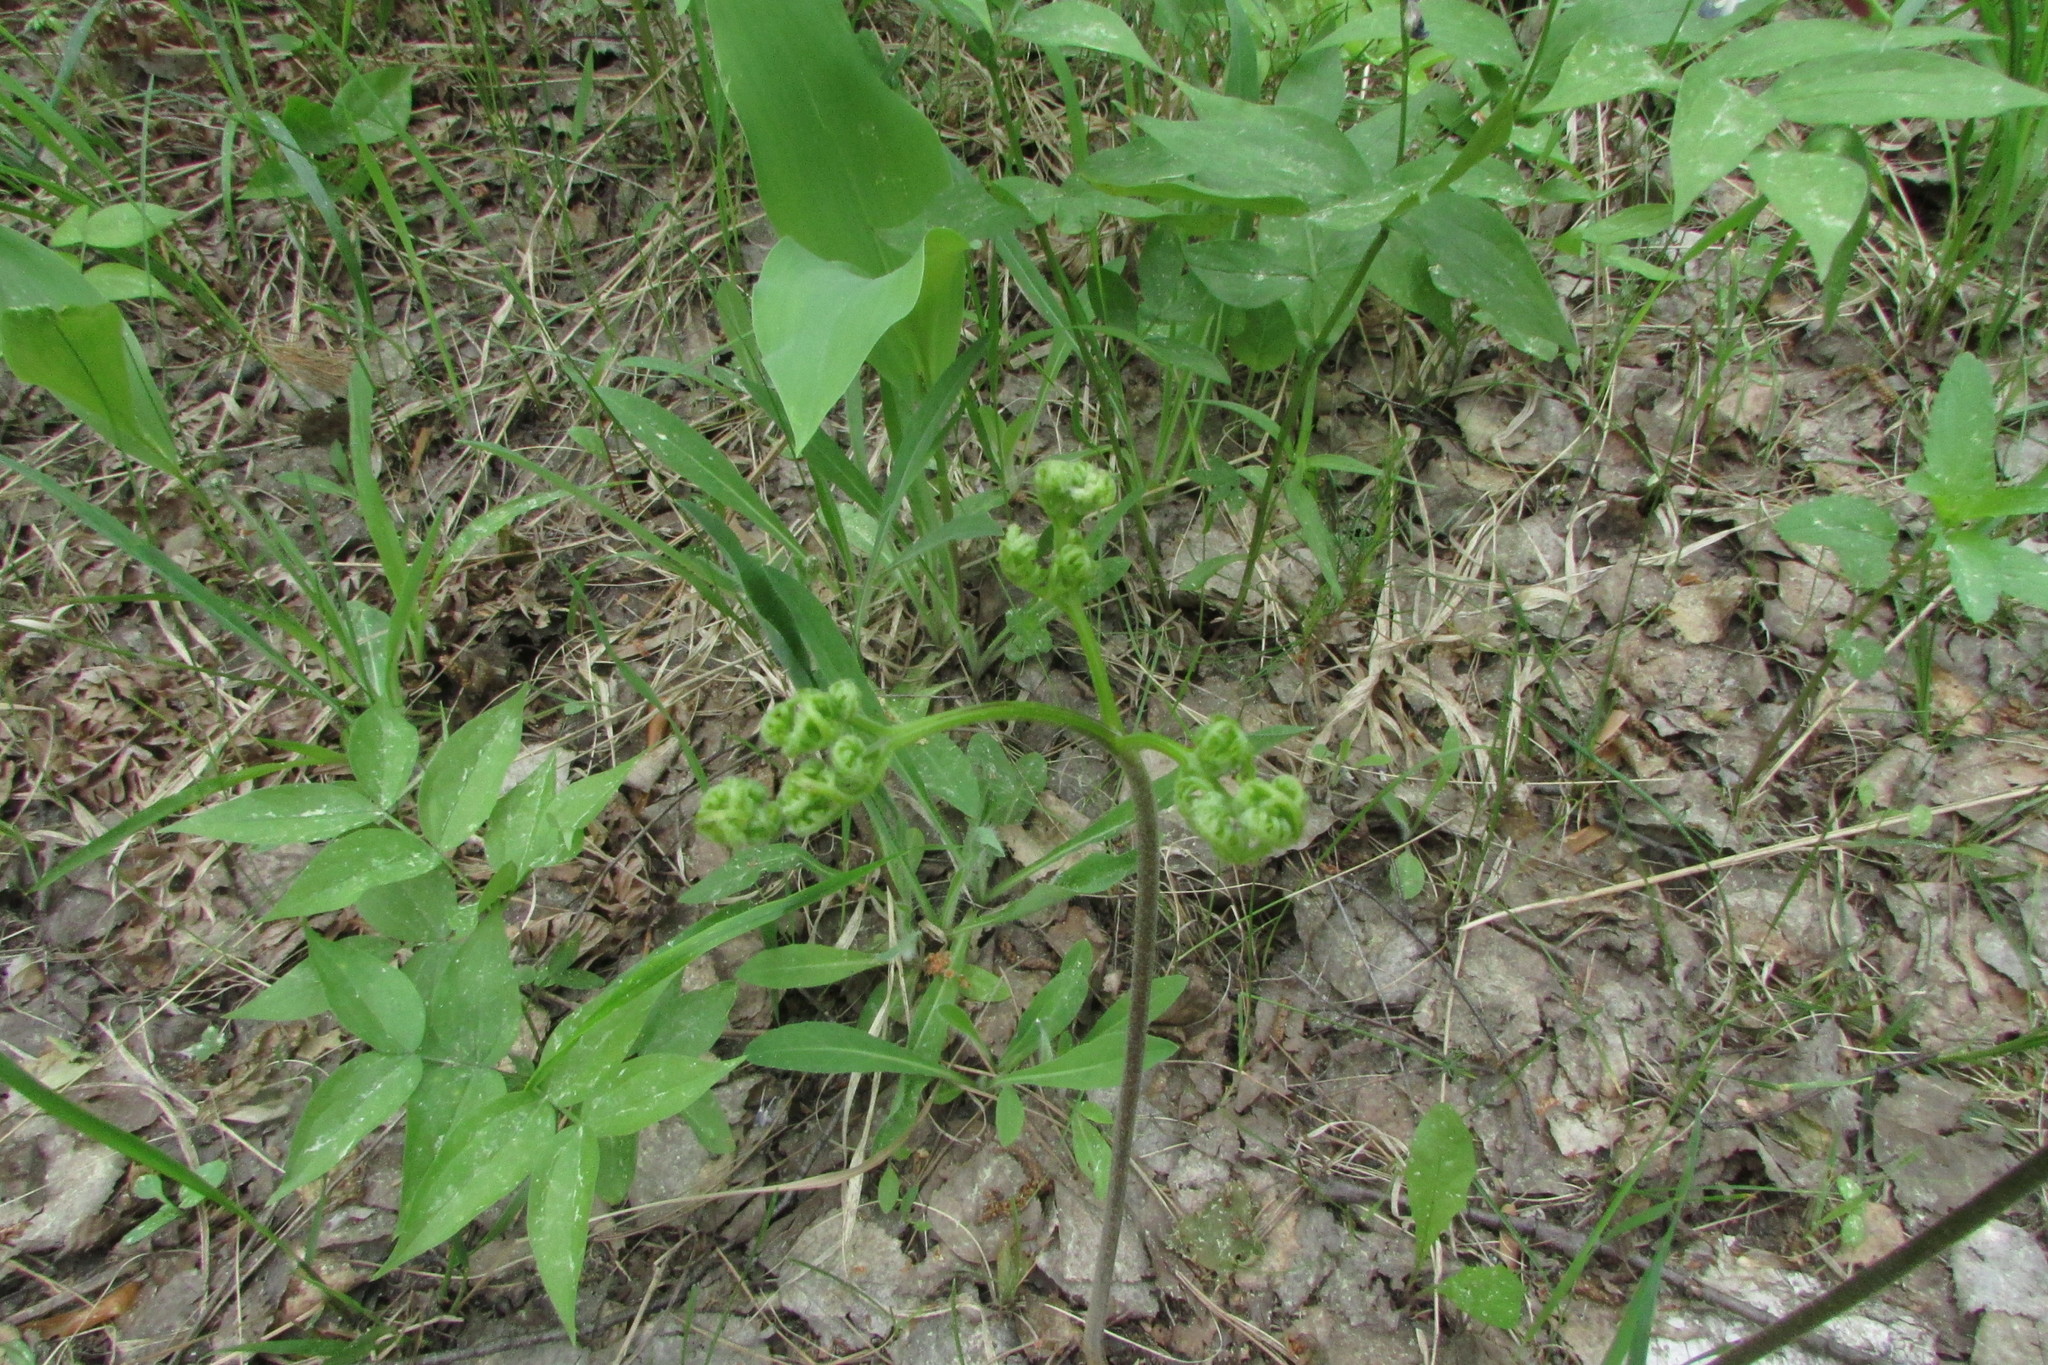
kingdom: Plantae
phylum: Tracheophyta
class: Polypodiopsida
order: Polypodiales
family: Dennstaedtiaceae
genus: Pteridium
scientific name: Pteridium aquilinum
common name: Bracken
